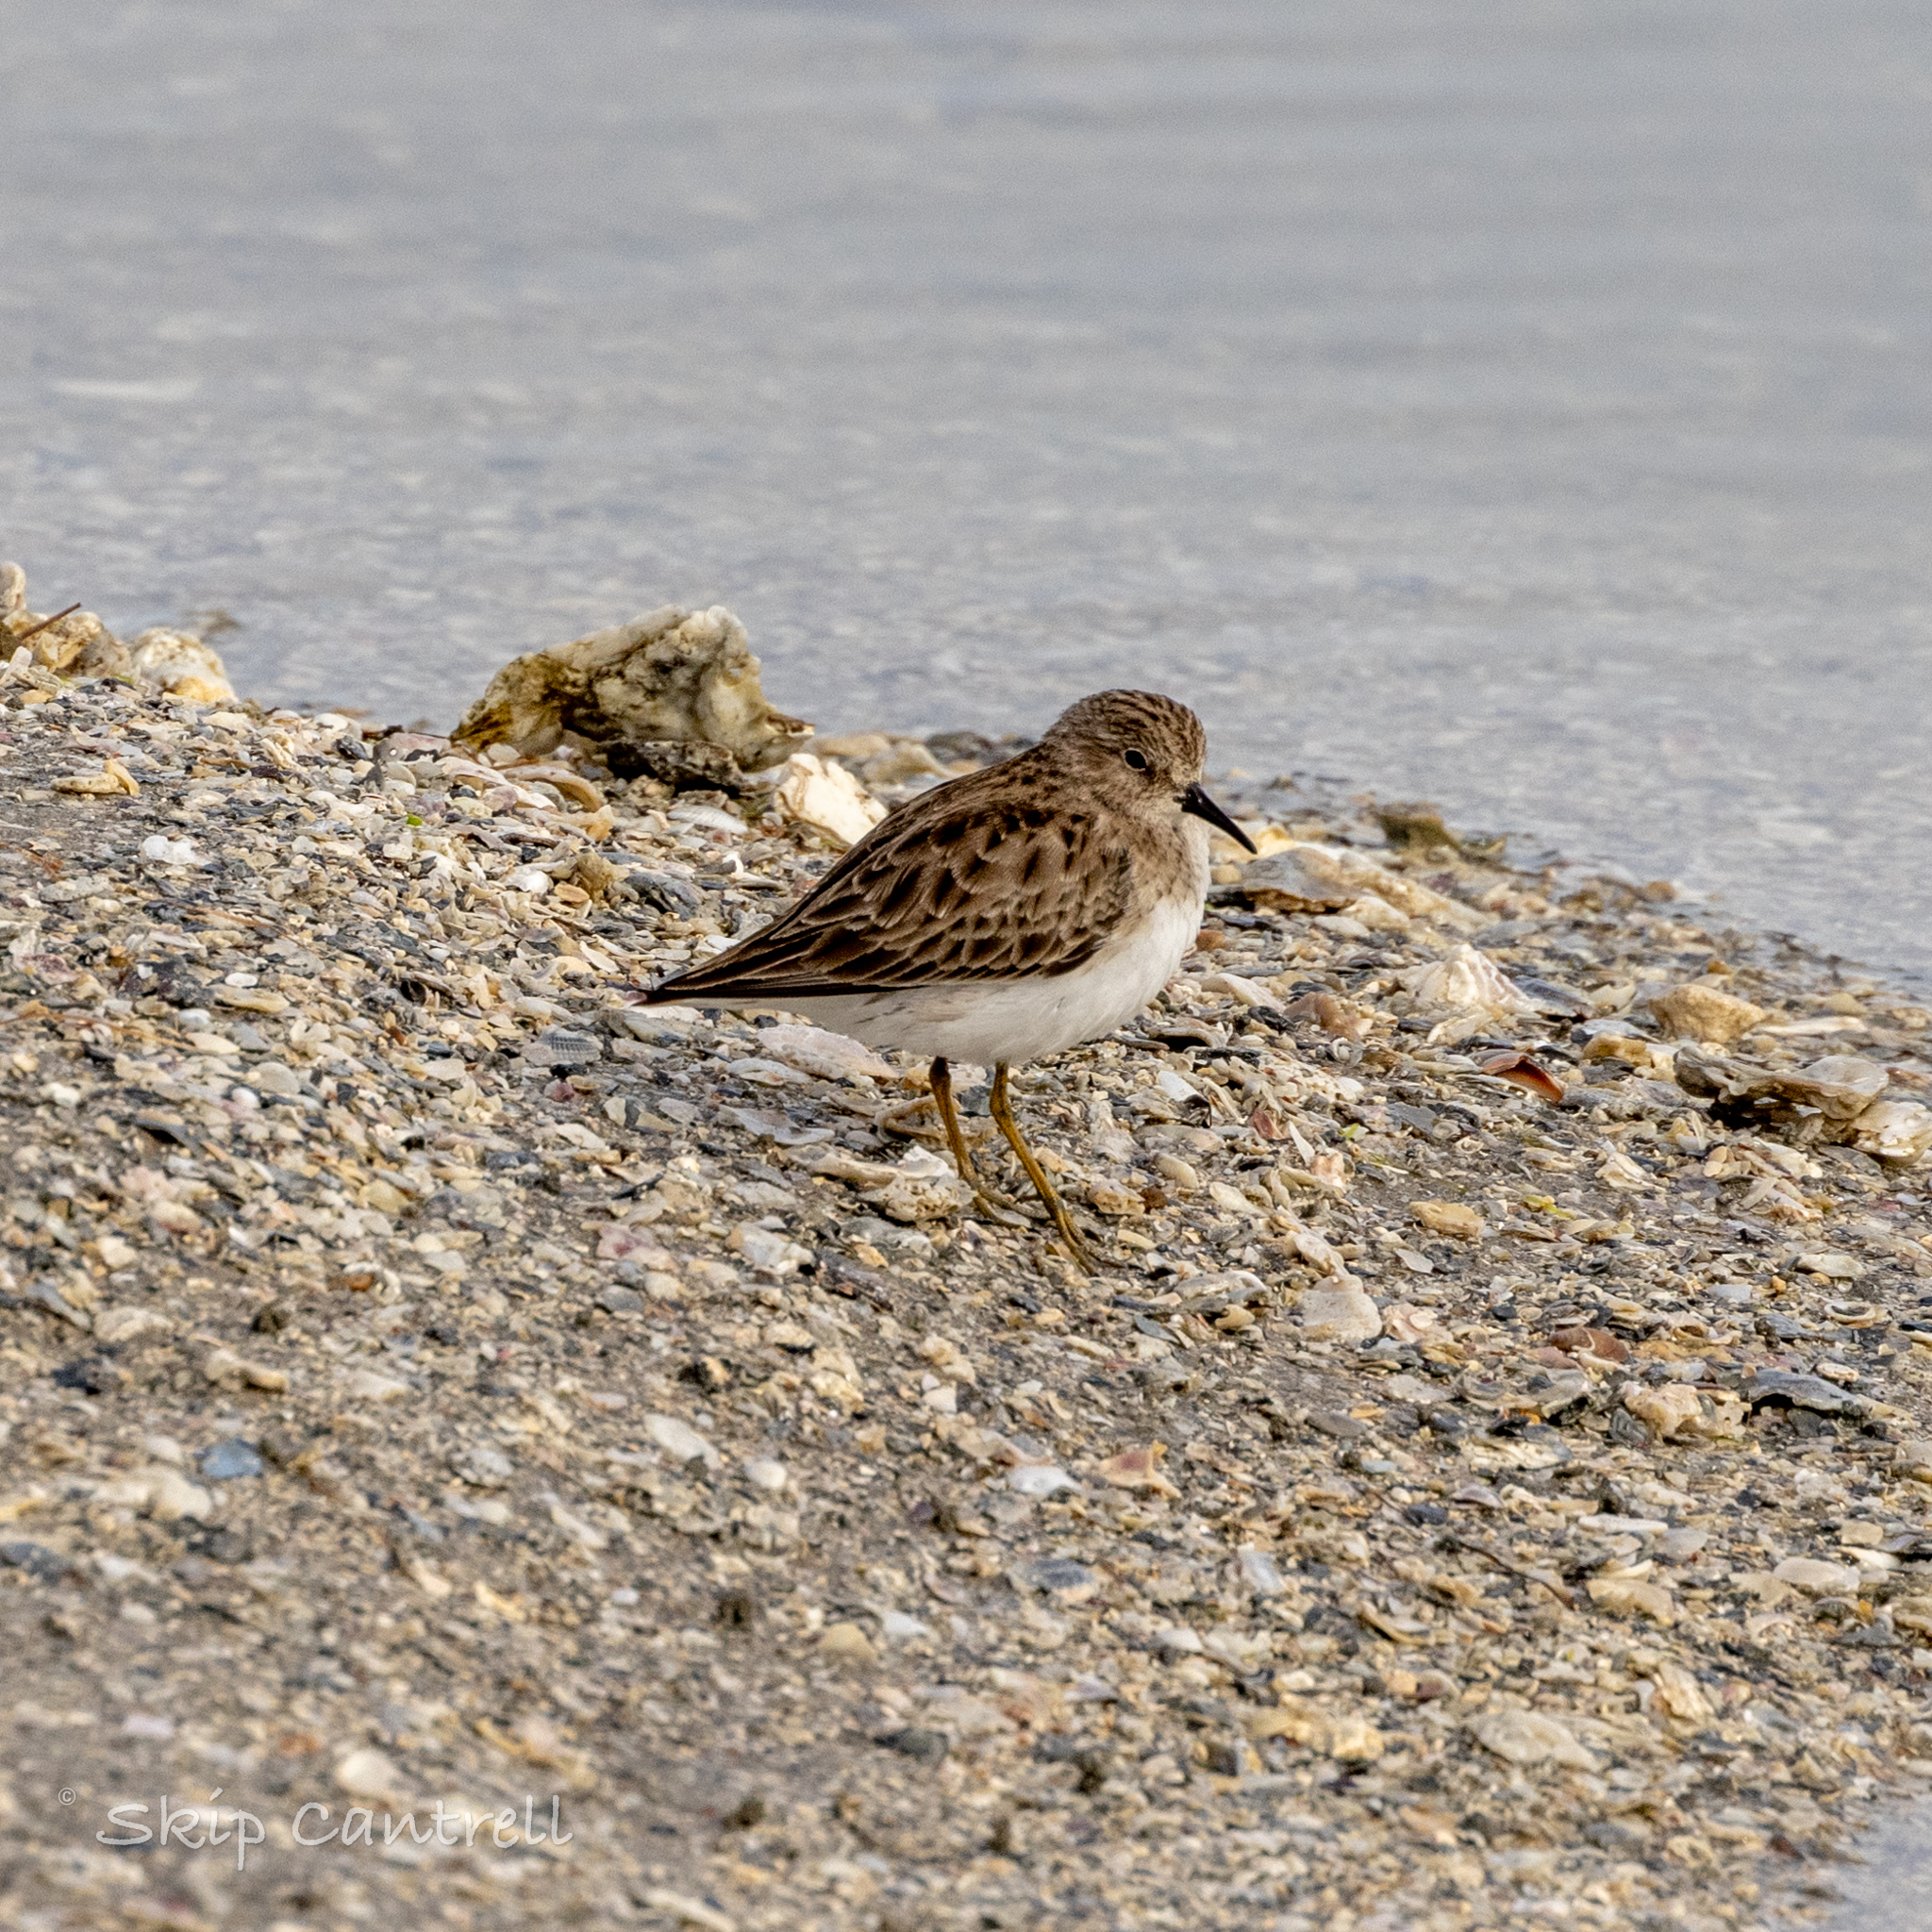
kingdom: Animalia
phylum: Chordata
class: Aves
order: Charadriiformes
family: Scolopacidae
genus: Calidris
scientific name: Calidris minutilla
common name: Least sandpiper
